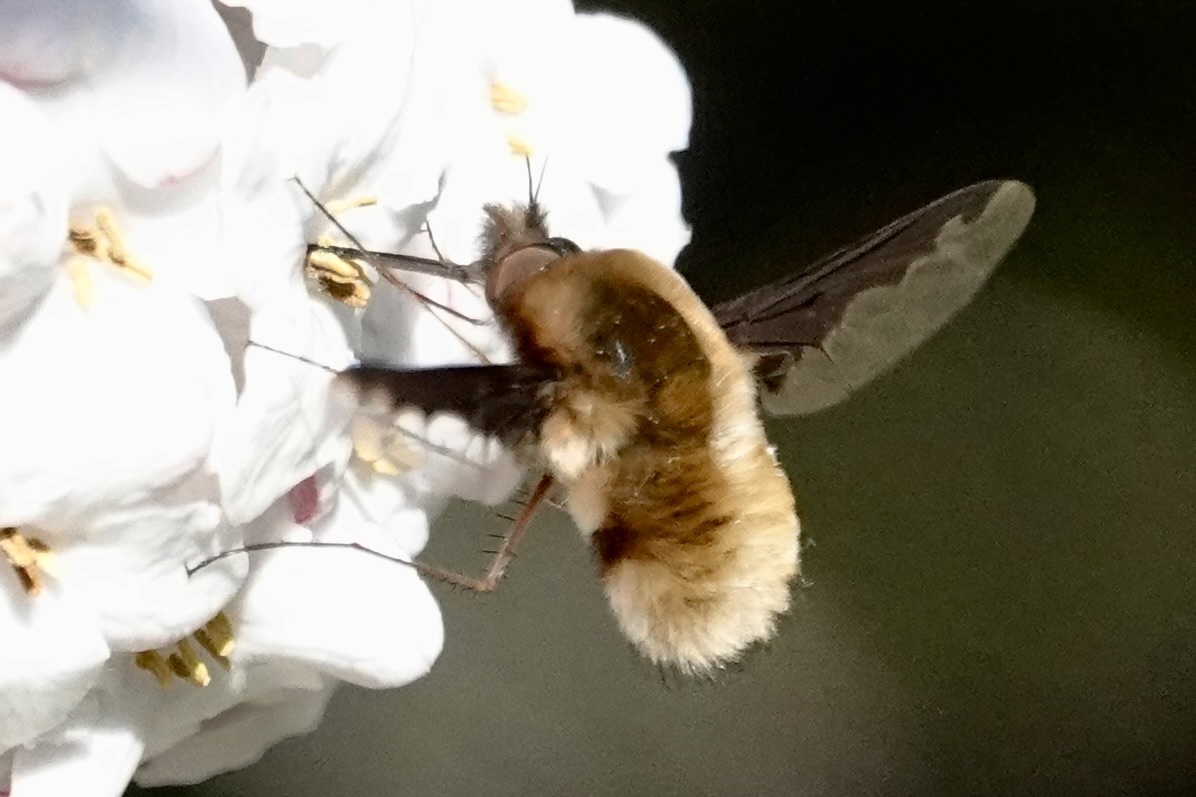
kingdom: Animalia
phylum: Arthropoda
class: Insecta
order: Diptera
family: Bombyliidae
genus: Bombylius
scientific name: Bombylius major
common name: Bee fly
